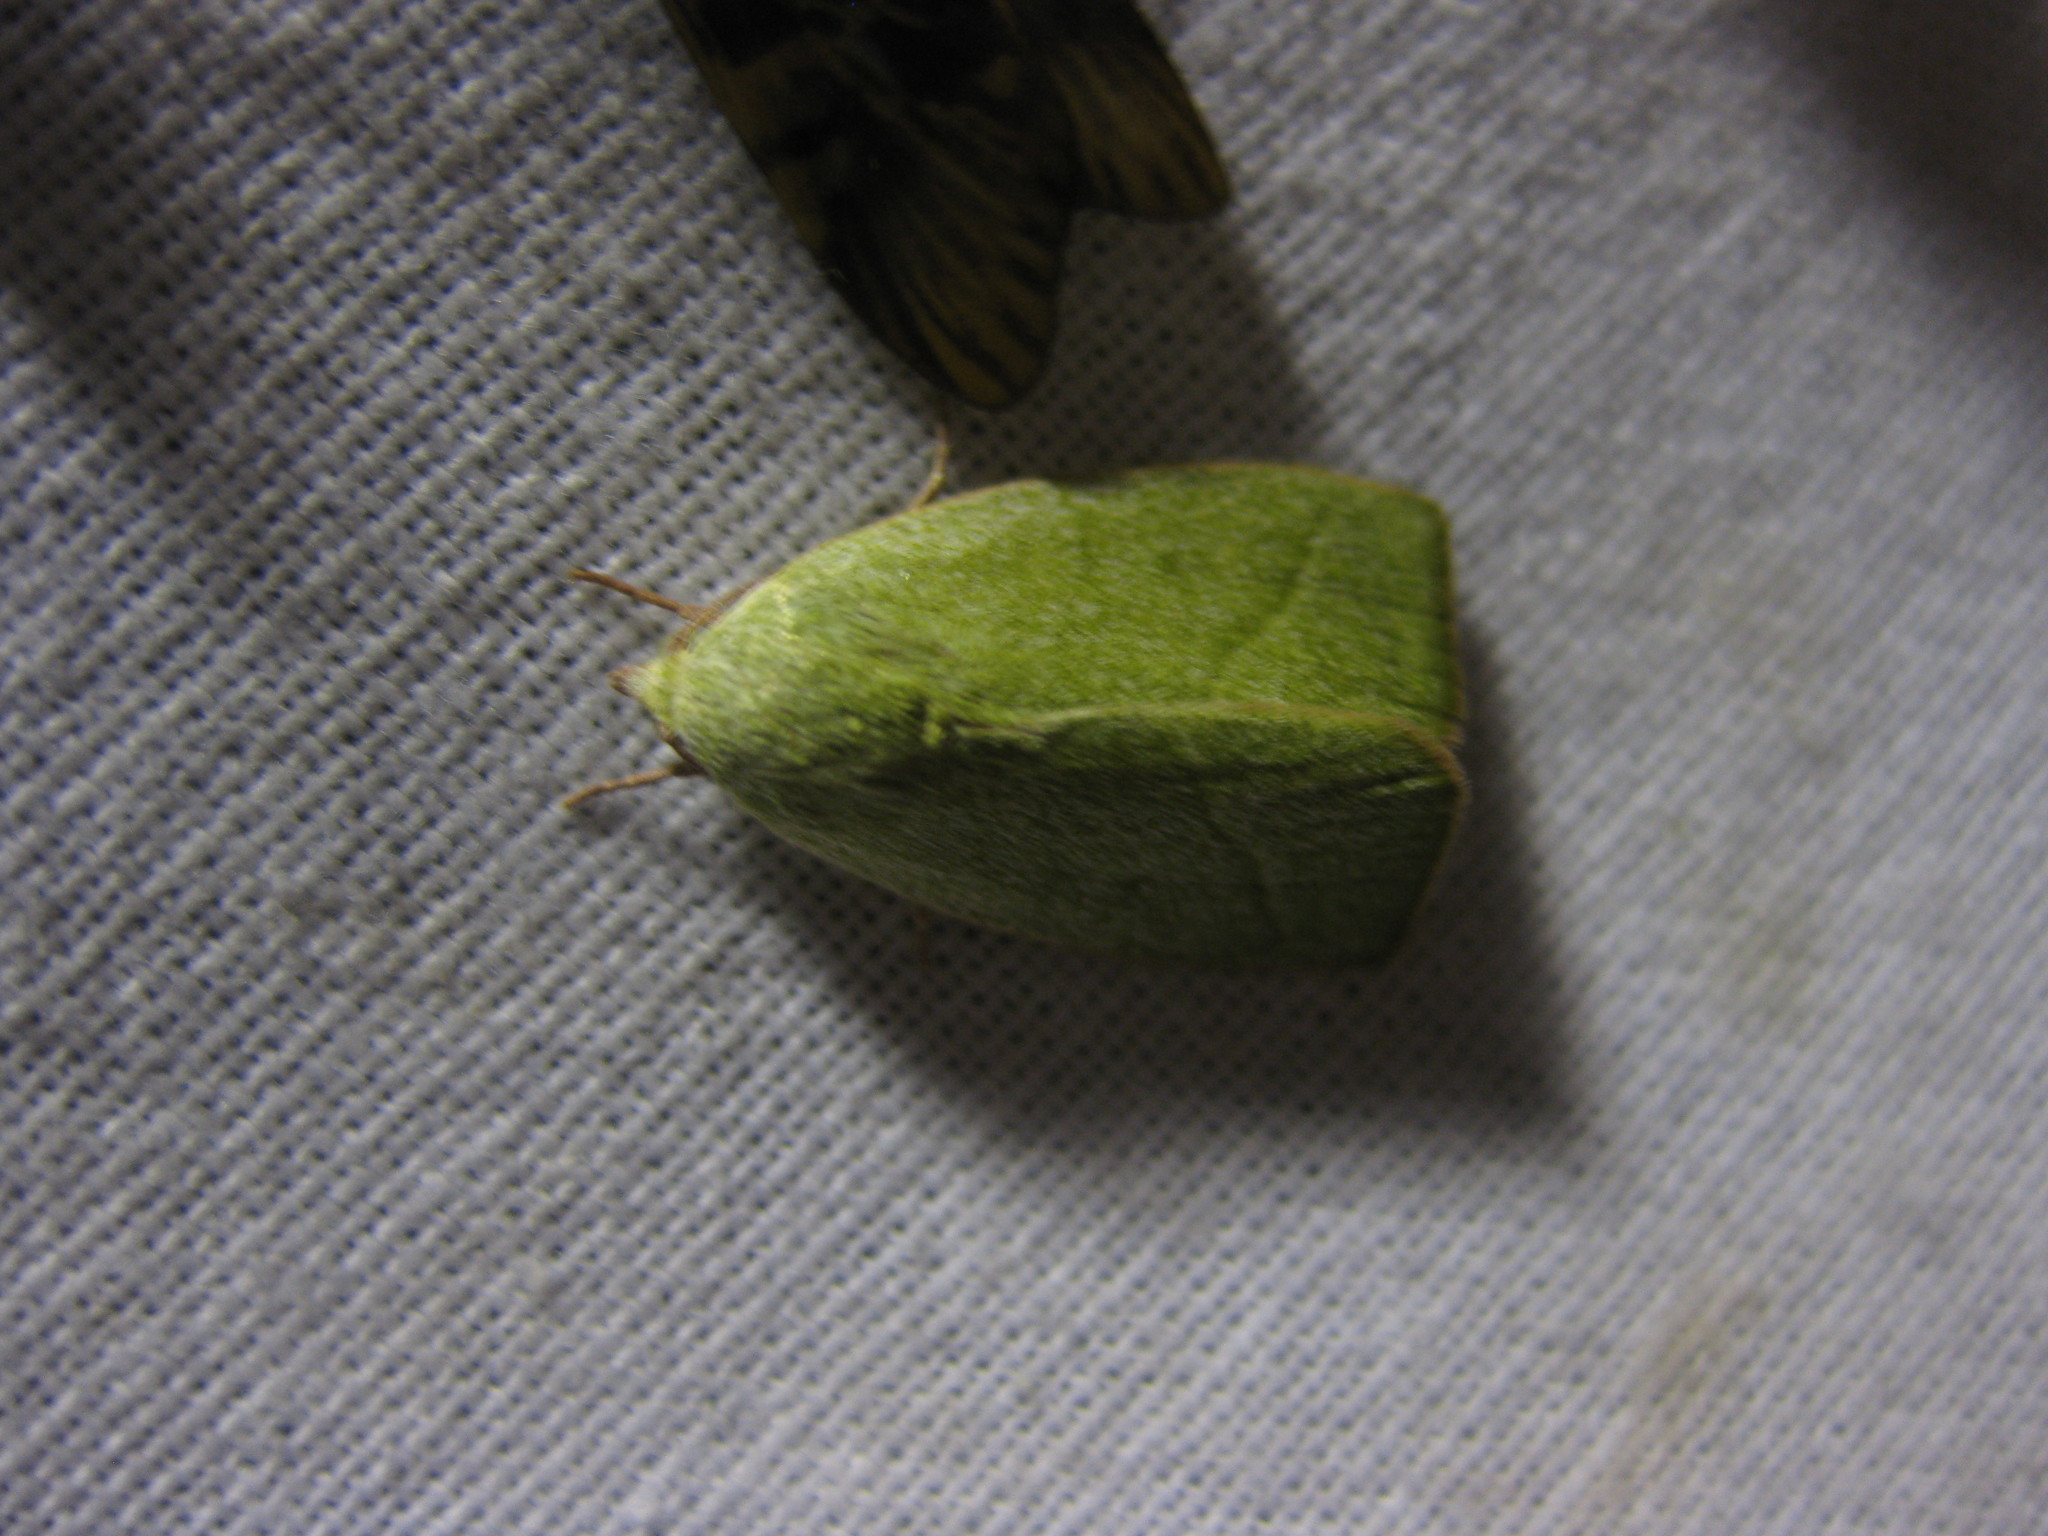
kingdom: Animalia
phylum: Arthropoda
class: Insecta
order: Lepidoptera
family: Nolidae
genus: Earias
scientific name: Earias subviridis
